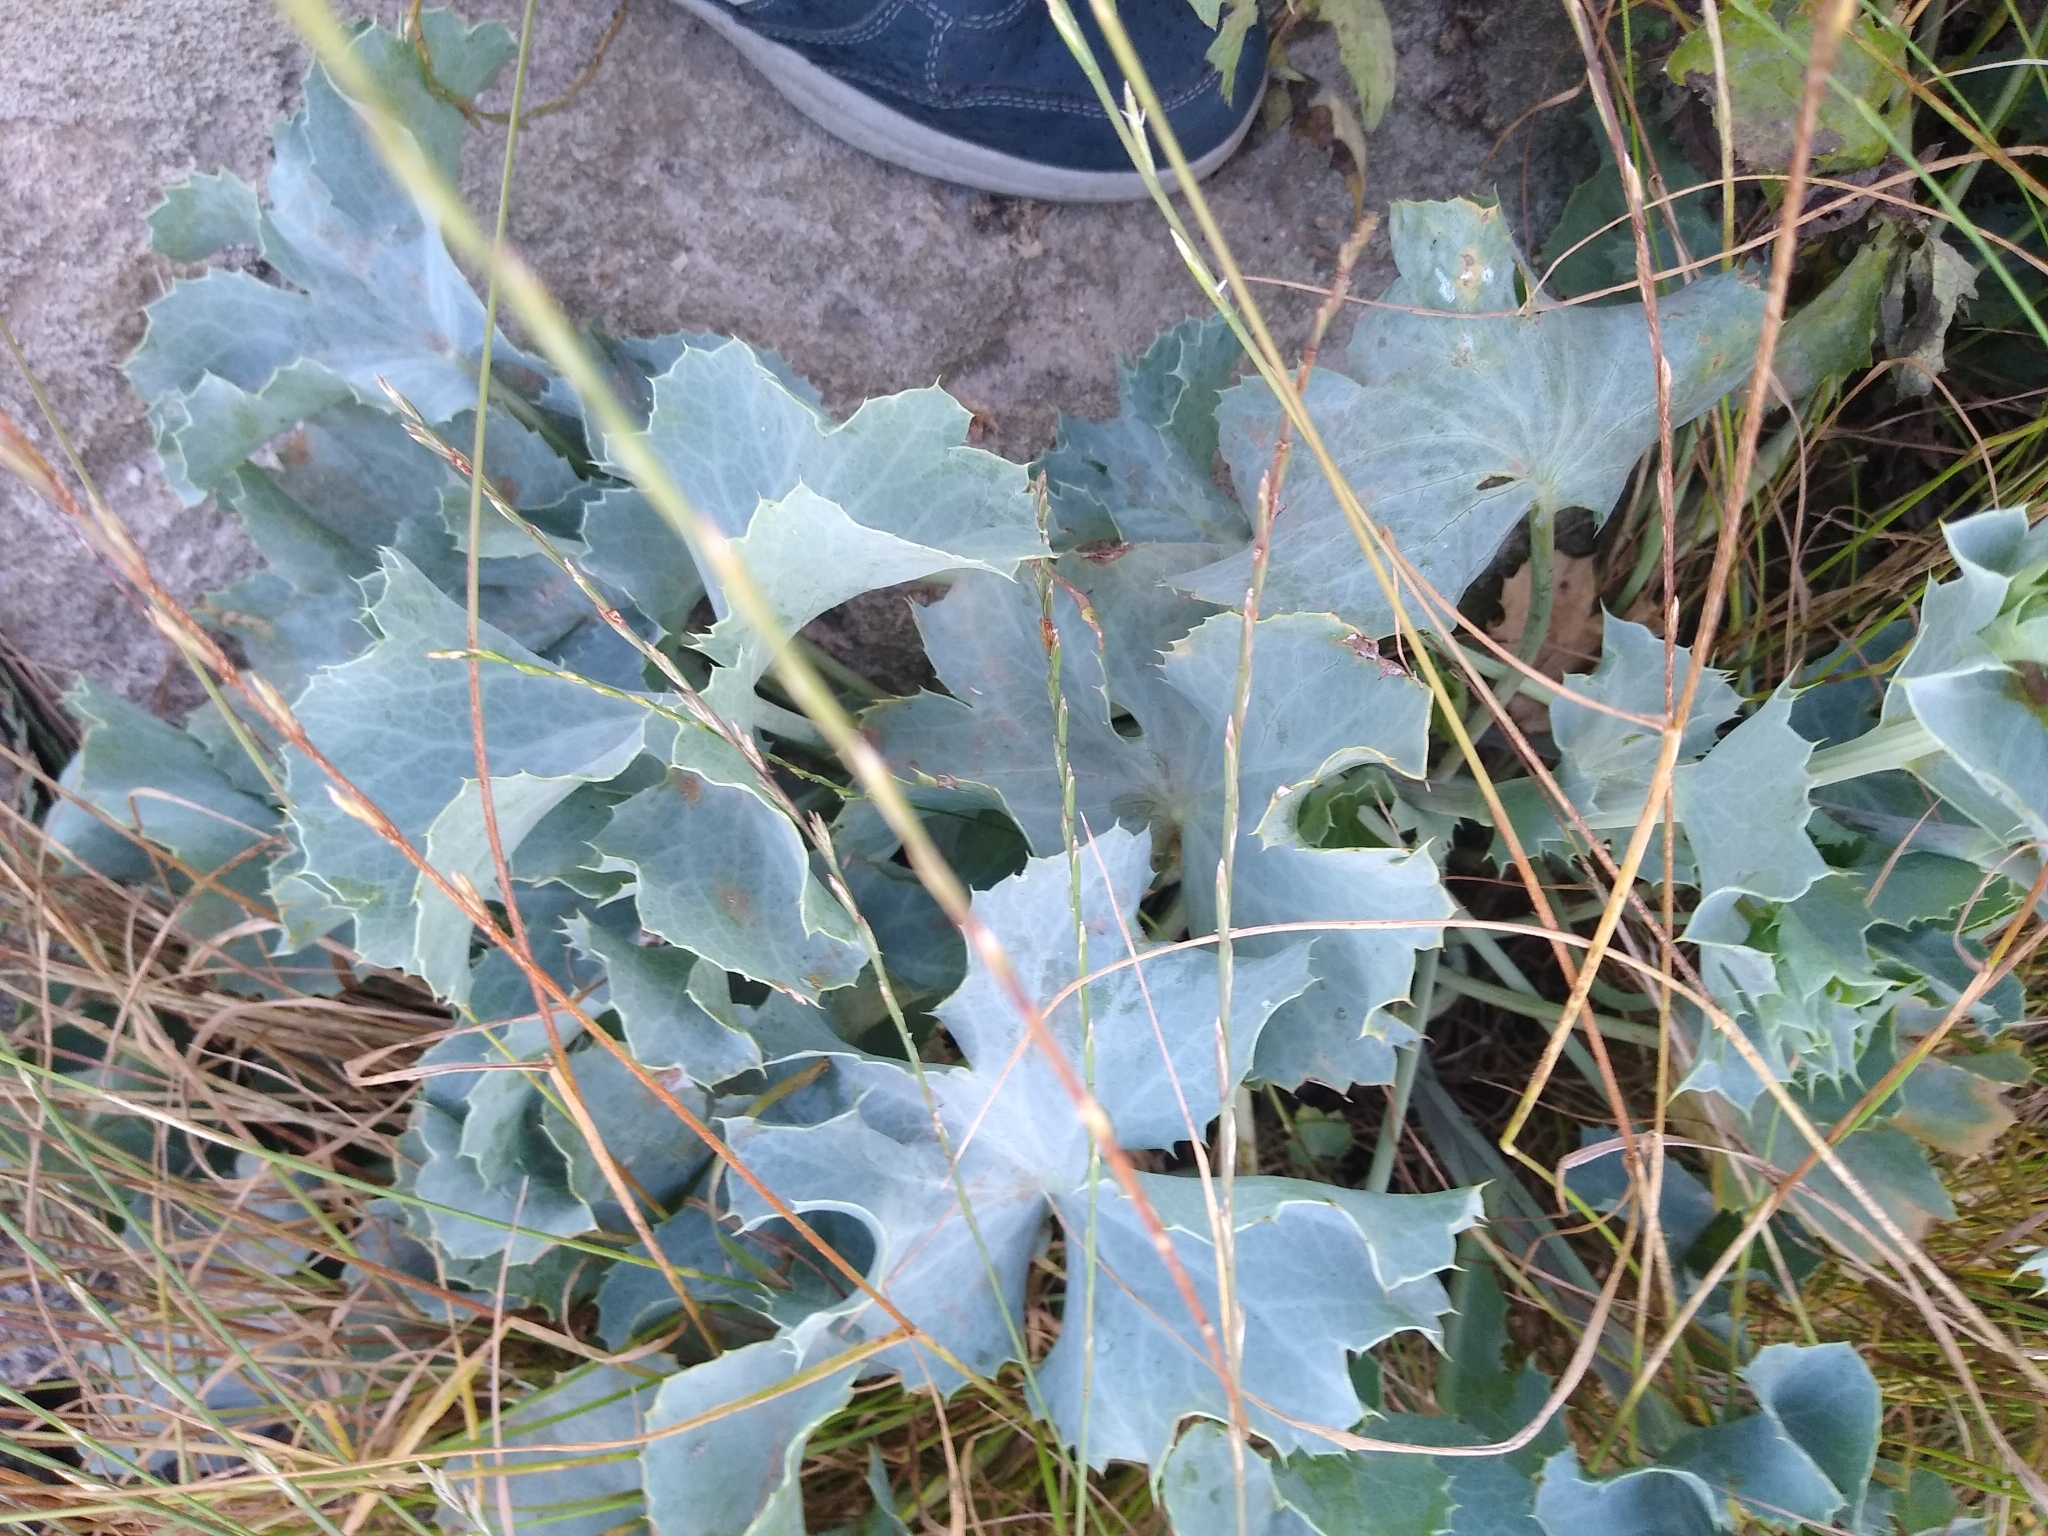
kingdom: Plantae
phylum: Tracheophyta
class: Magnoliopsida
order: Brassicales
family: Brassicaceae
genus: Crambe
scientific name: Crambe maritima
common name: Sea-kale
